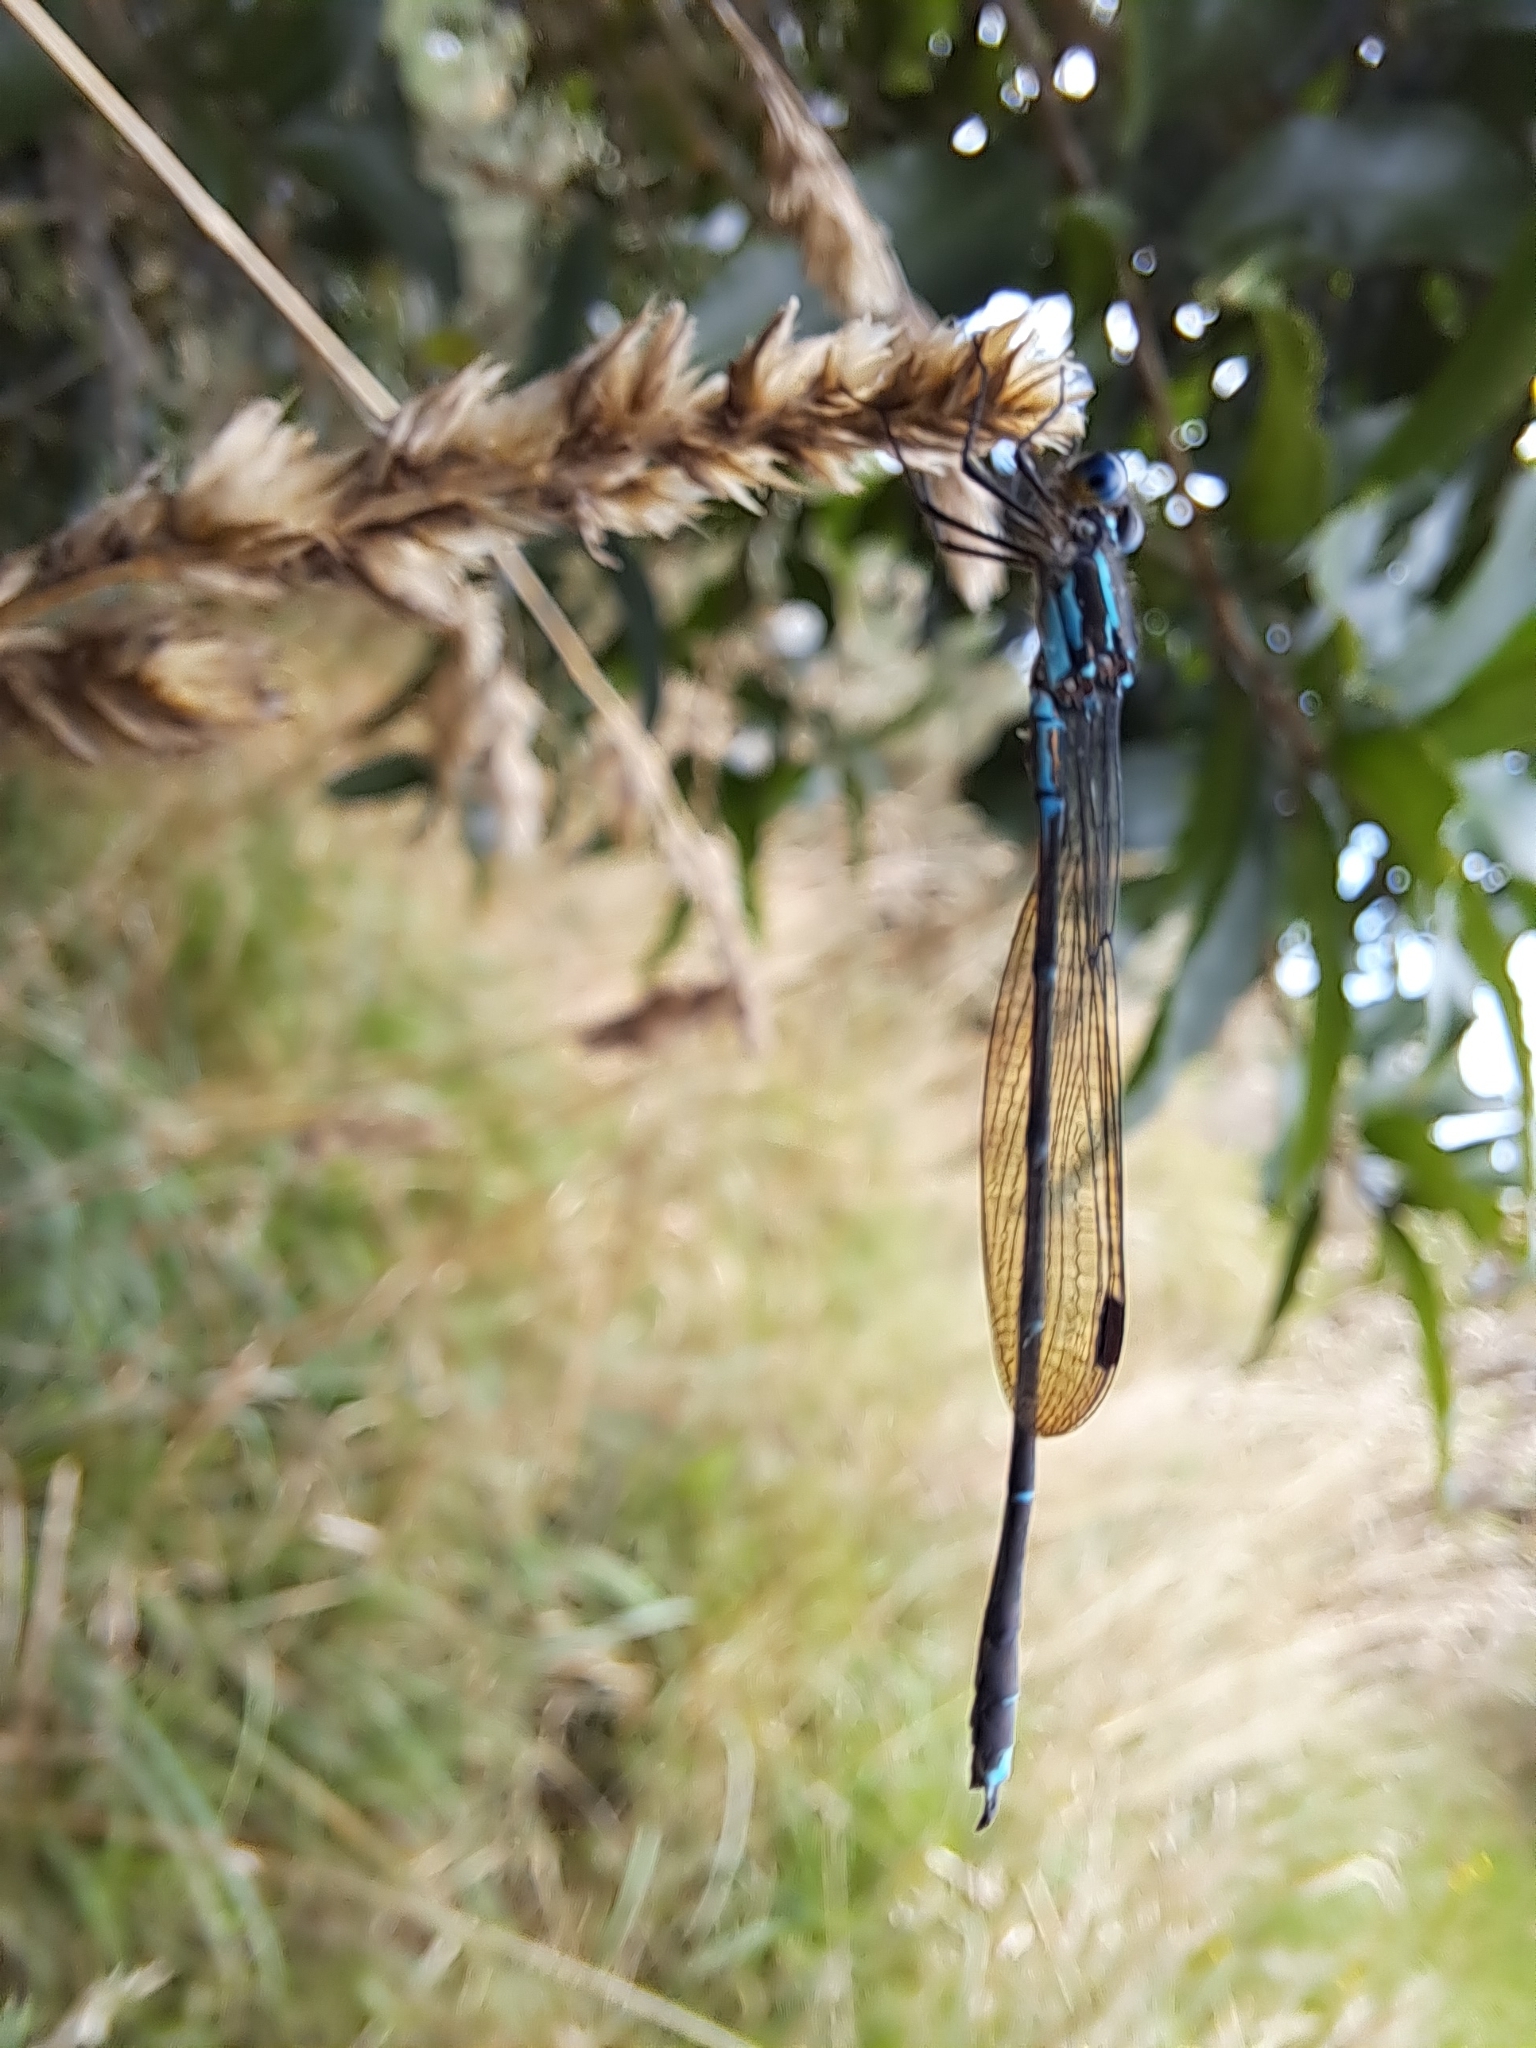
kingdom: Animalia
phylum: Arthropoda
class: Insecta
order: Odonata
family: Lestidae
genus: Austrolestes
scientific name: Austrolestes colensonis
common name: Blue damselfly
